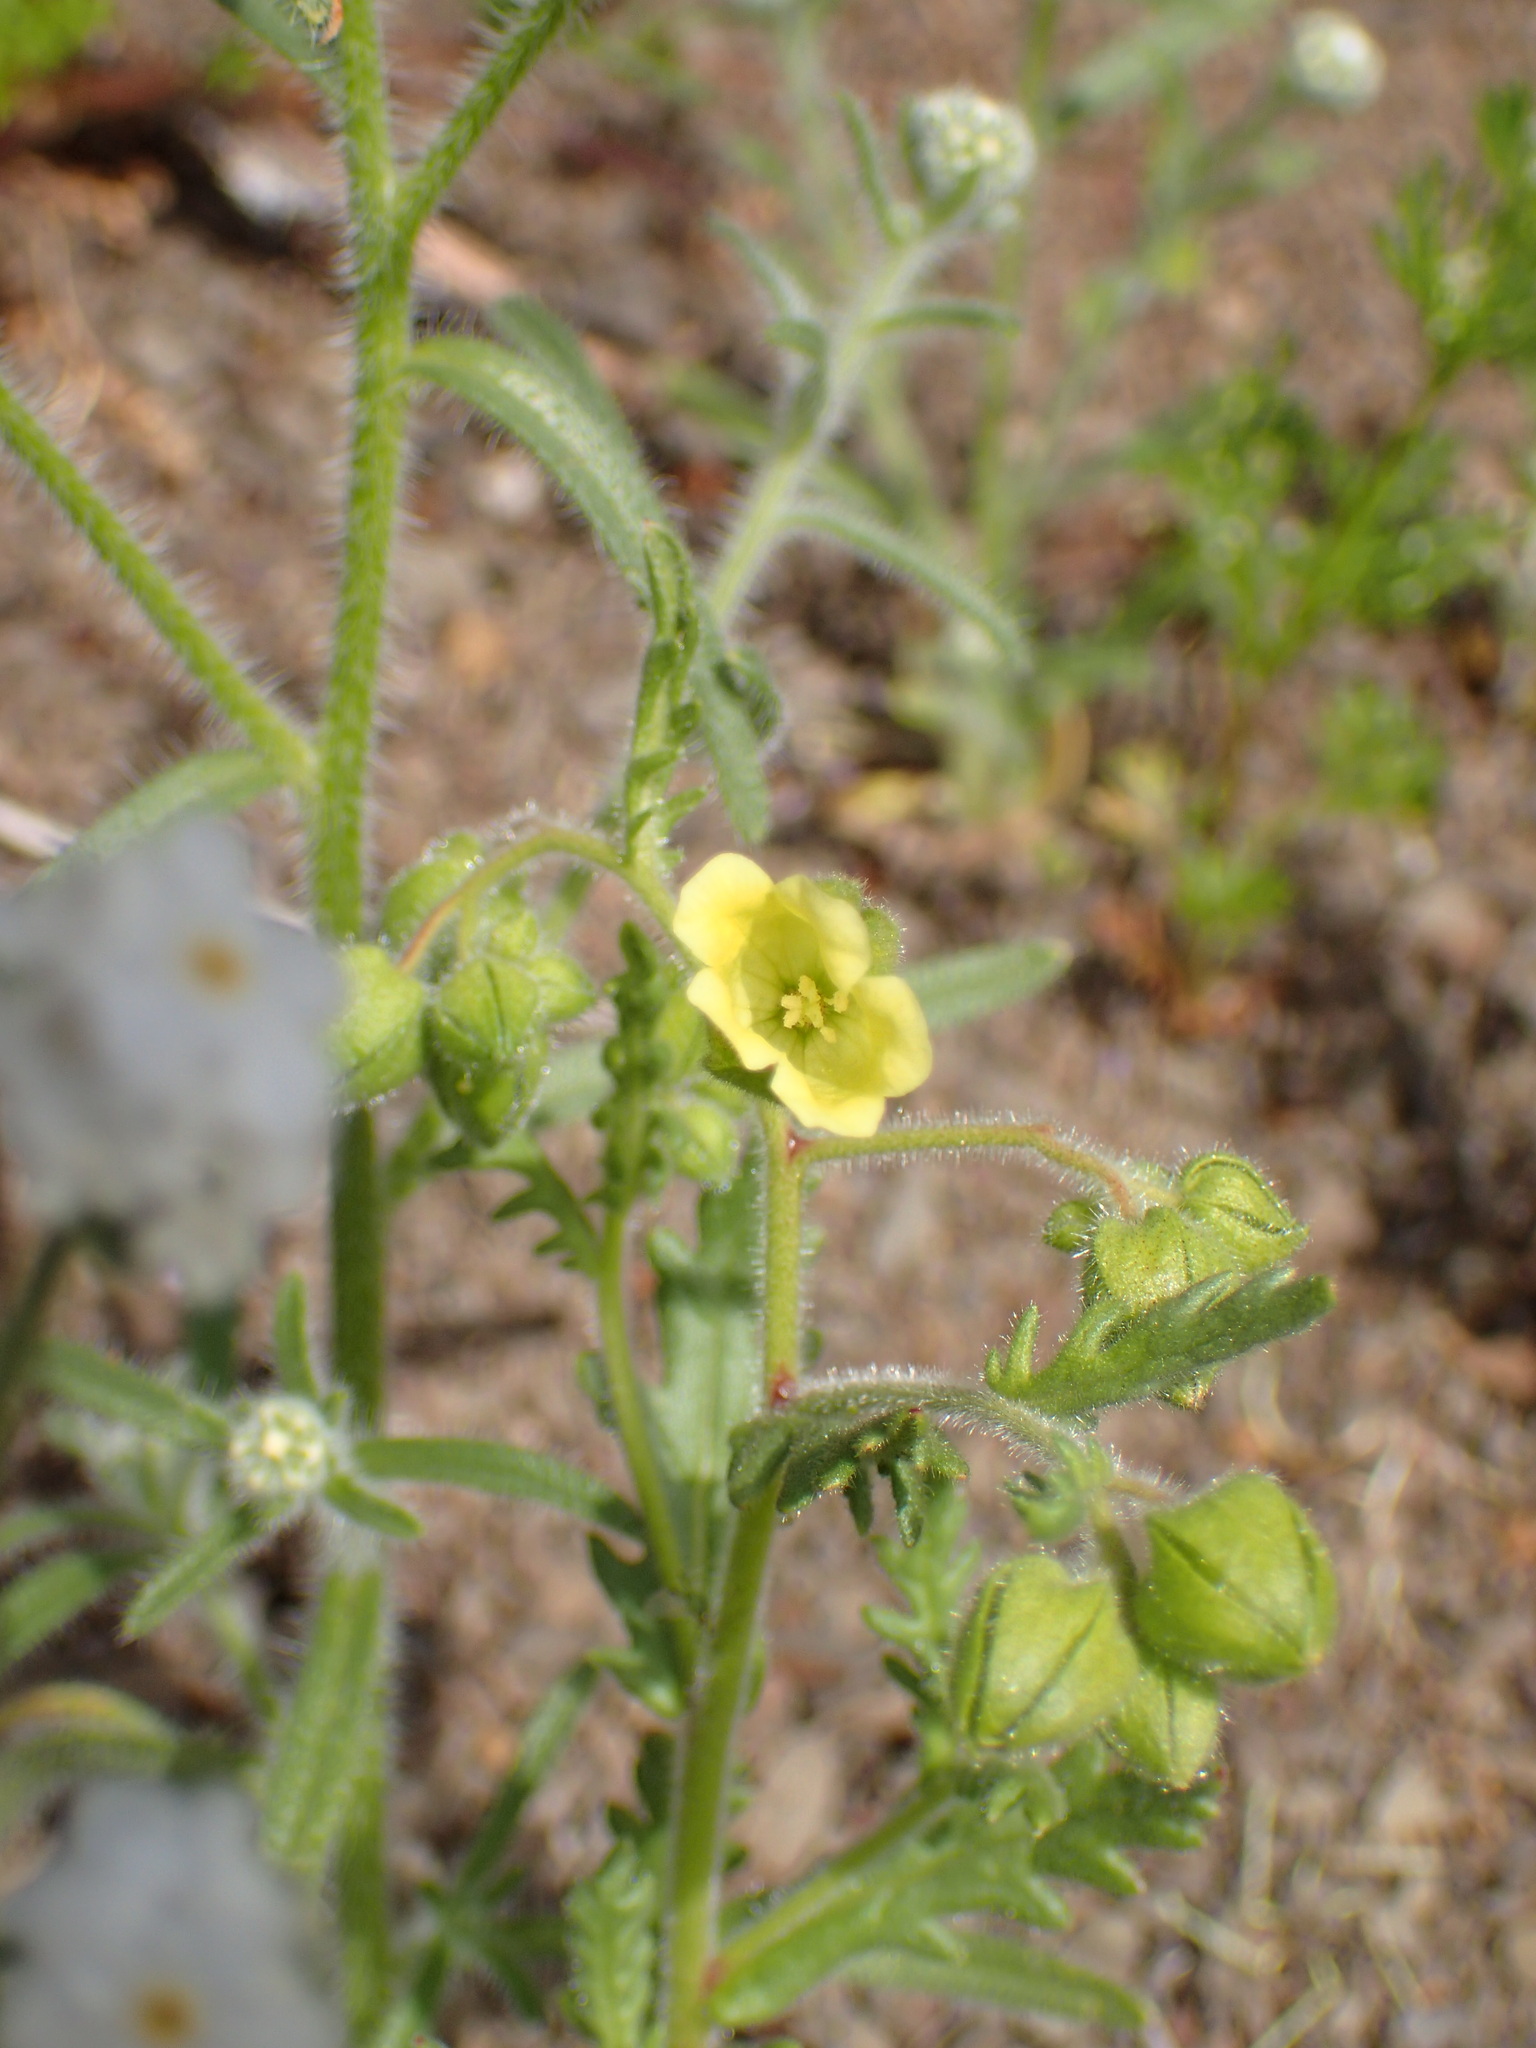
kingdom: Plantae
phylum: Tracheophyta
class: Magnoliopsida
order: Boraginales
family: Hydrophyllaceae
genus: Emmenanthe
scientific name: Emmenanthe penduliflora
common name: Whispering-bells
